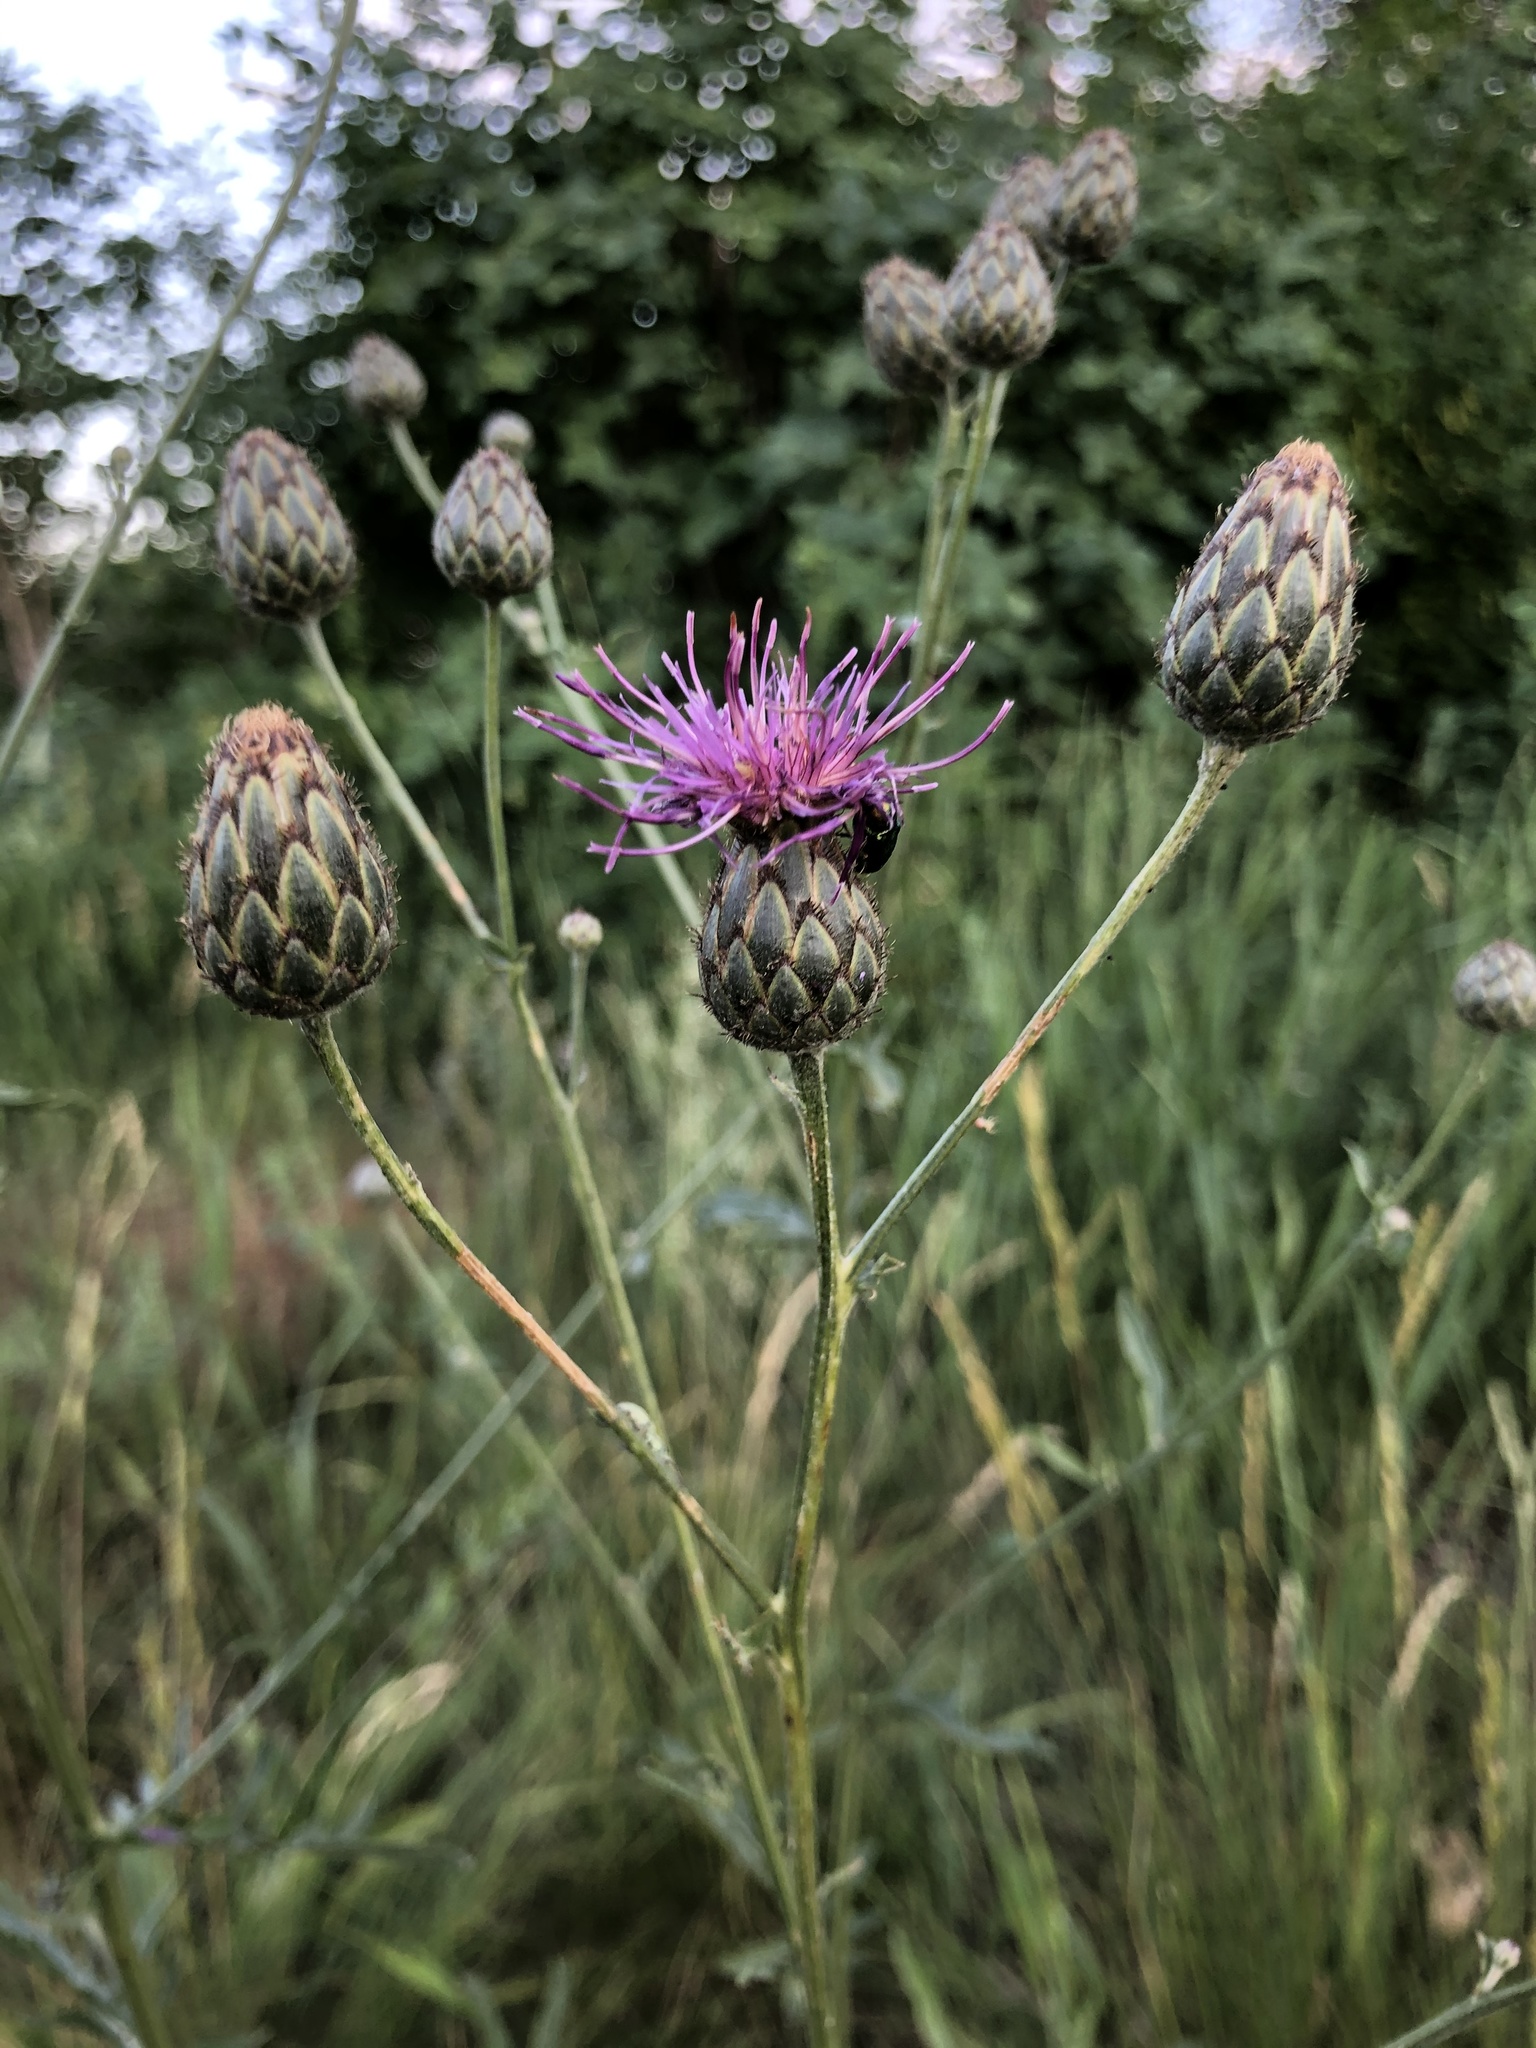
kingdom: Plantae
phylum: Tracheophyta
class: Magnoliopsida
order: Asterales
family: Asteraceae
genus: Centaurea
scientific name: Centaurea scabiosa
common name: Greater knapweed
